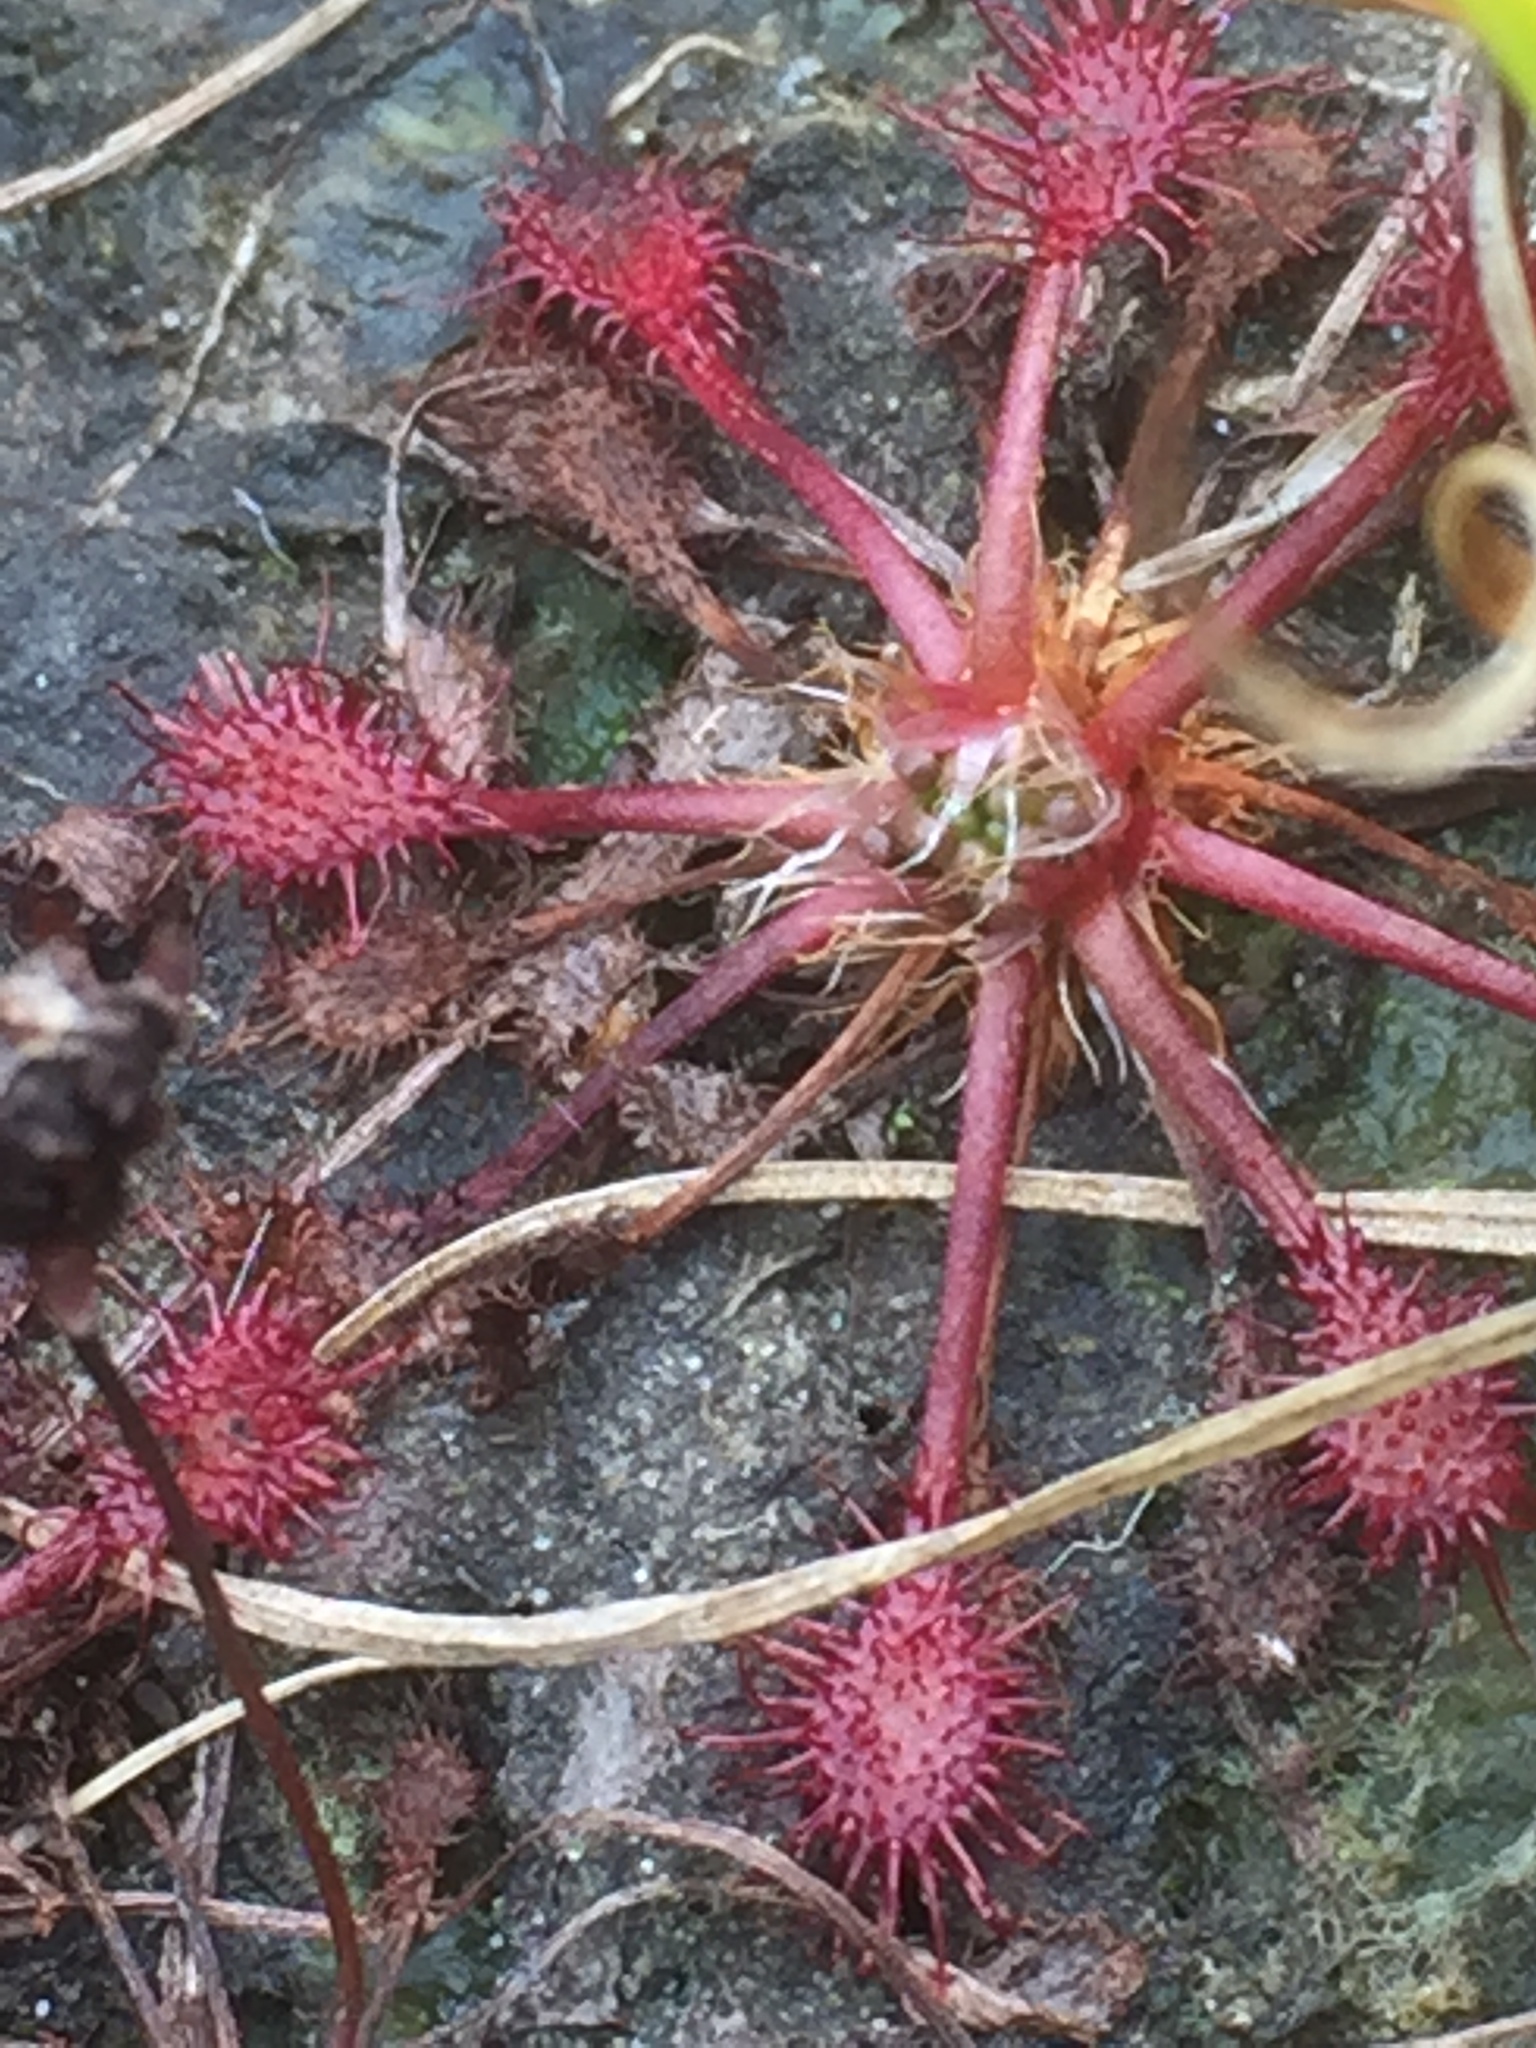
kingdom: Plantae
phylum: Tracheophyta
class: Magnoliopsida
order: Caryophyllales
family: Droseraceae
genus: Drosera
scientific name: Drosera intermedia
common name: Oblong-leaved sundew
